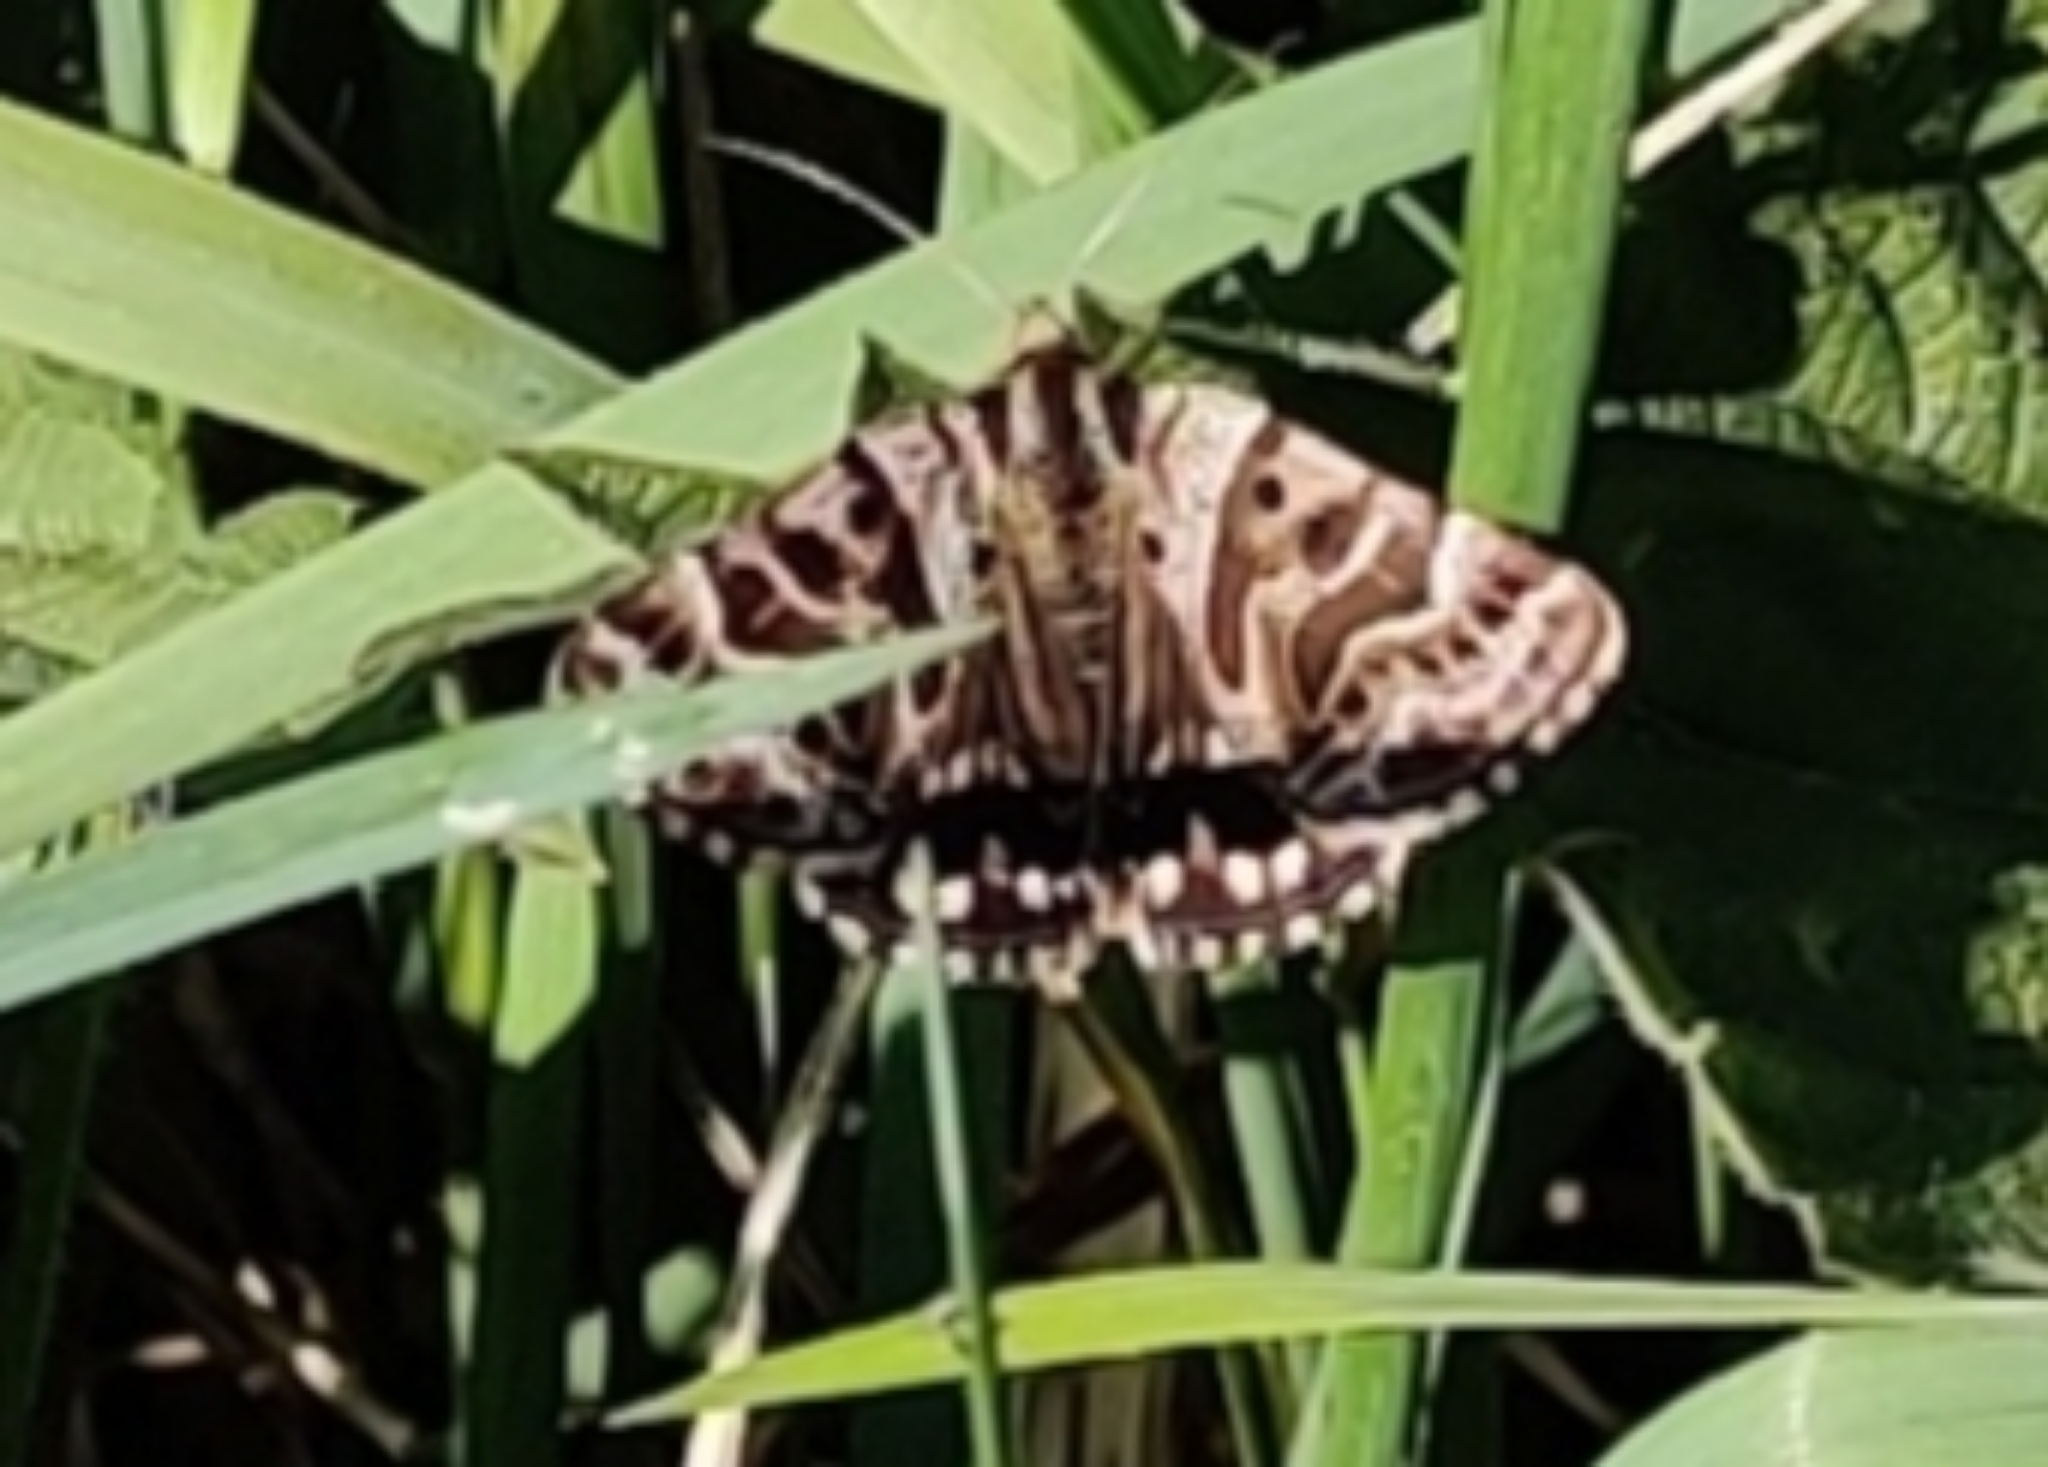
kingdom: Animalia
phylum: Arthropoda
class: Insecta
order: Lepidoptera
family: Erebidae
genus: Callistege
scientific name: Callistege mi
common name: Mother shipton
